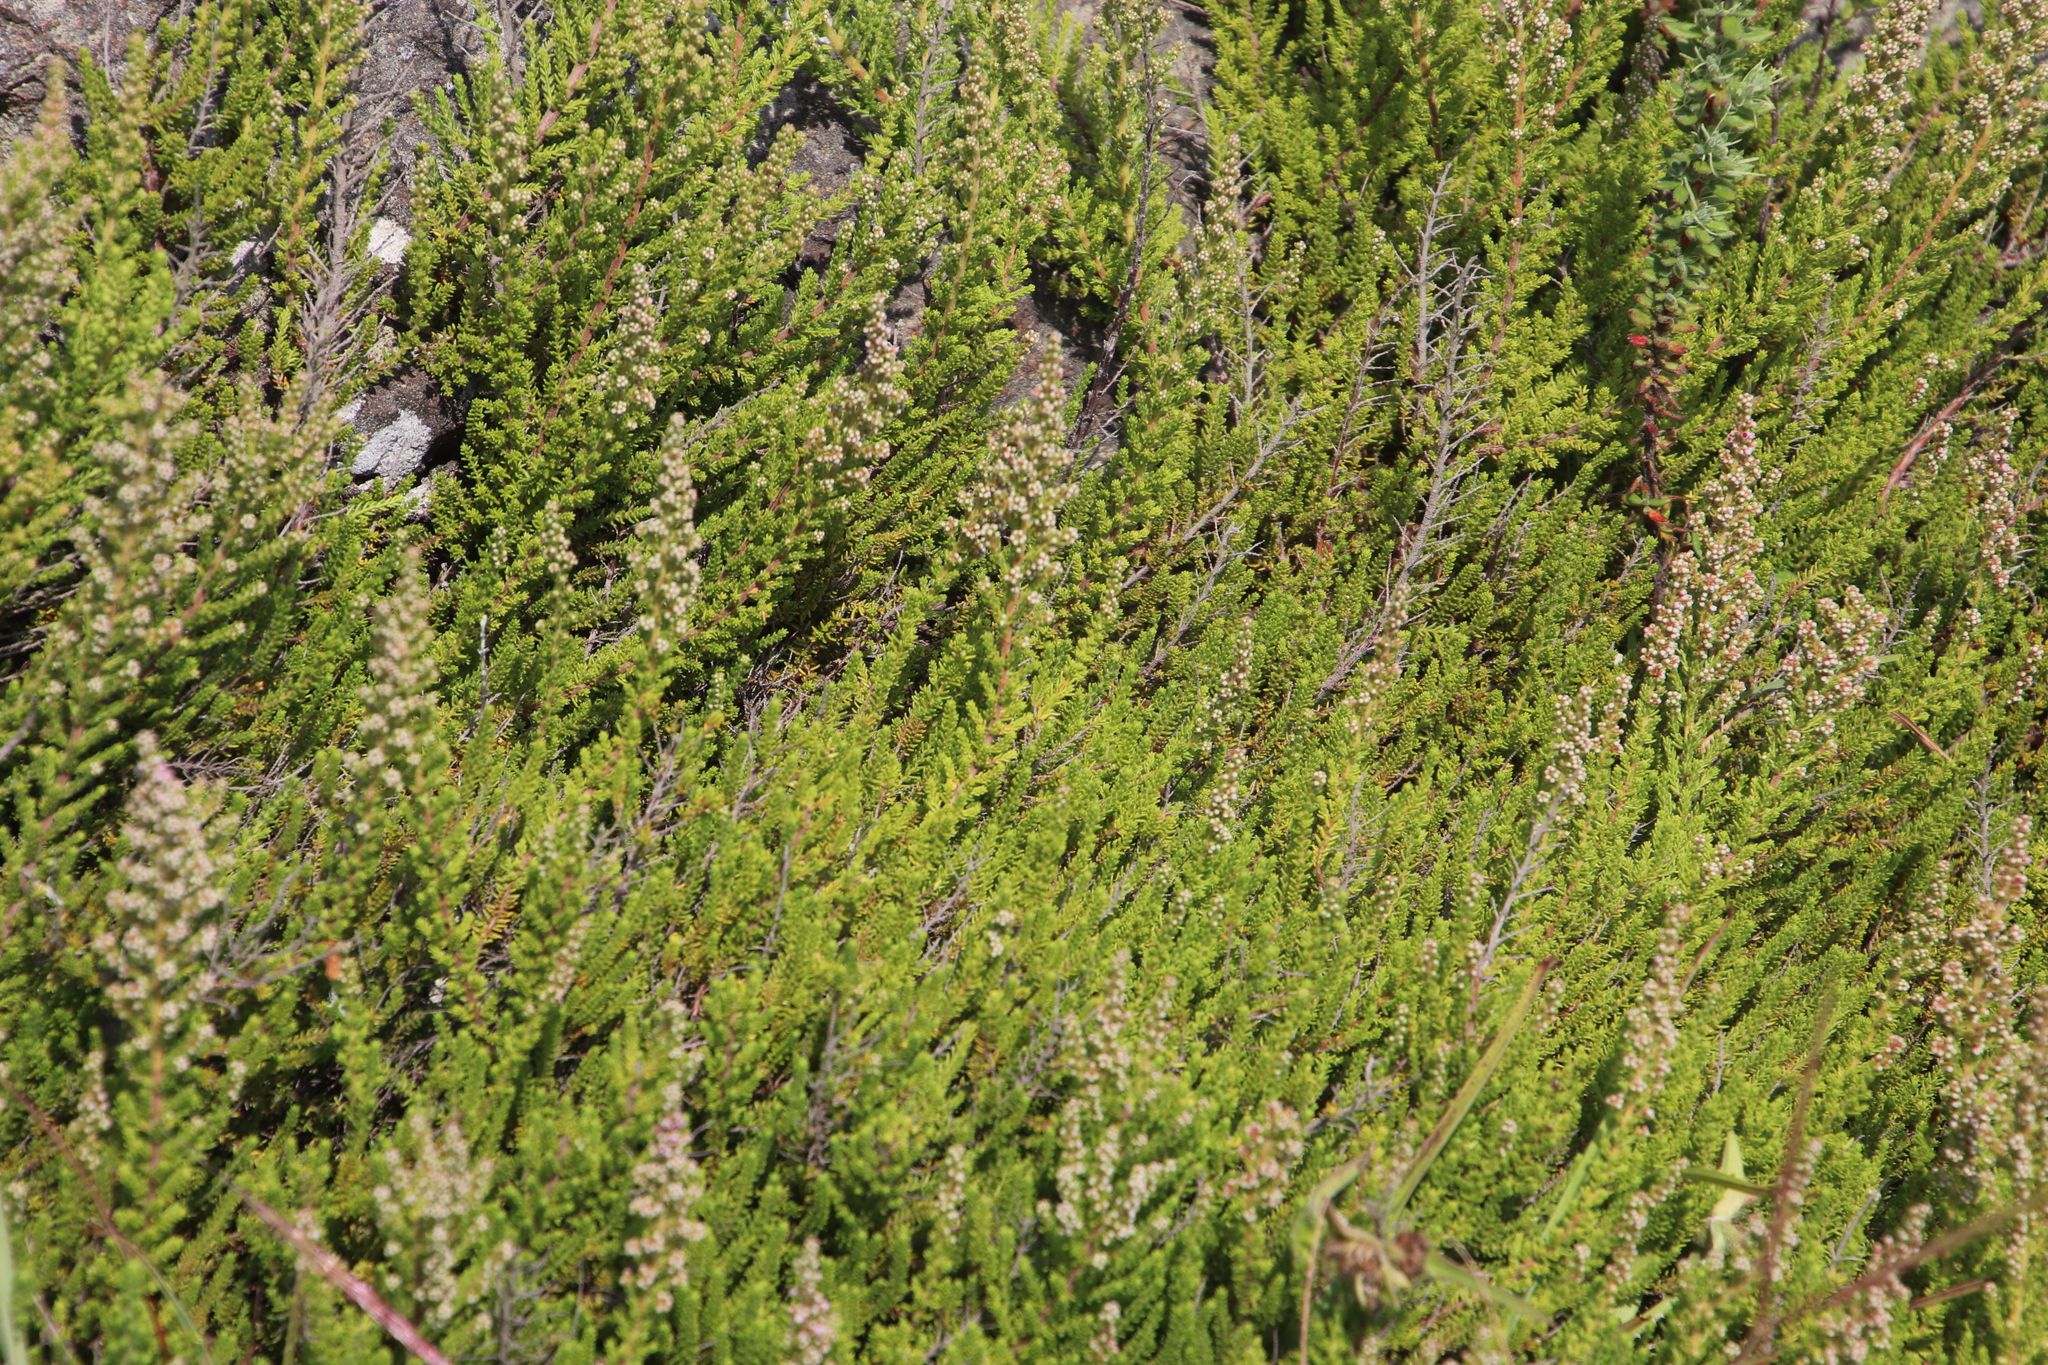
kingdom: Plantae
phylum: Tracheophyta
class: Magnoliopsida
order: Ericales
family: Ericaceae
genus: Erica
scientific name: Erica woodii
